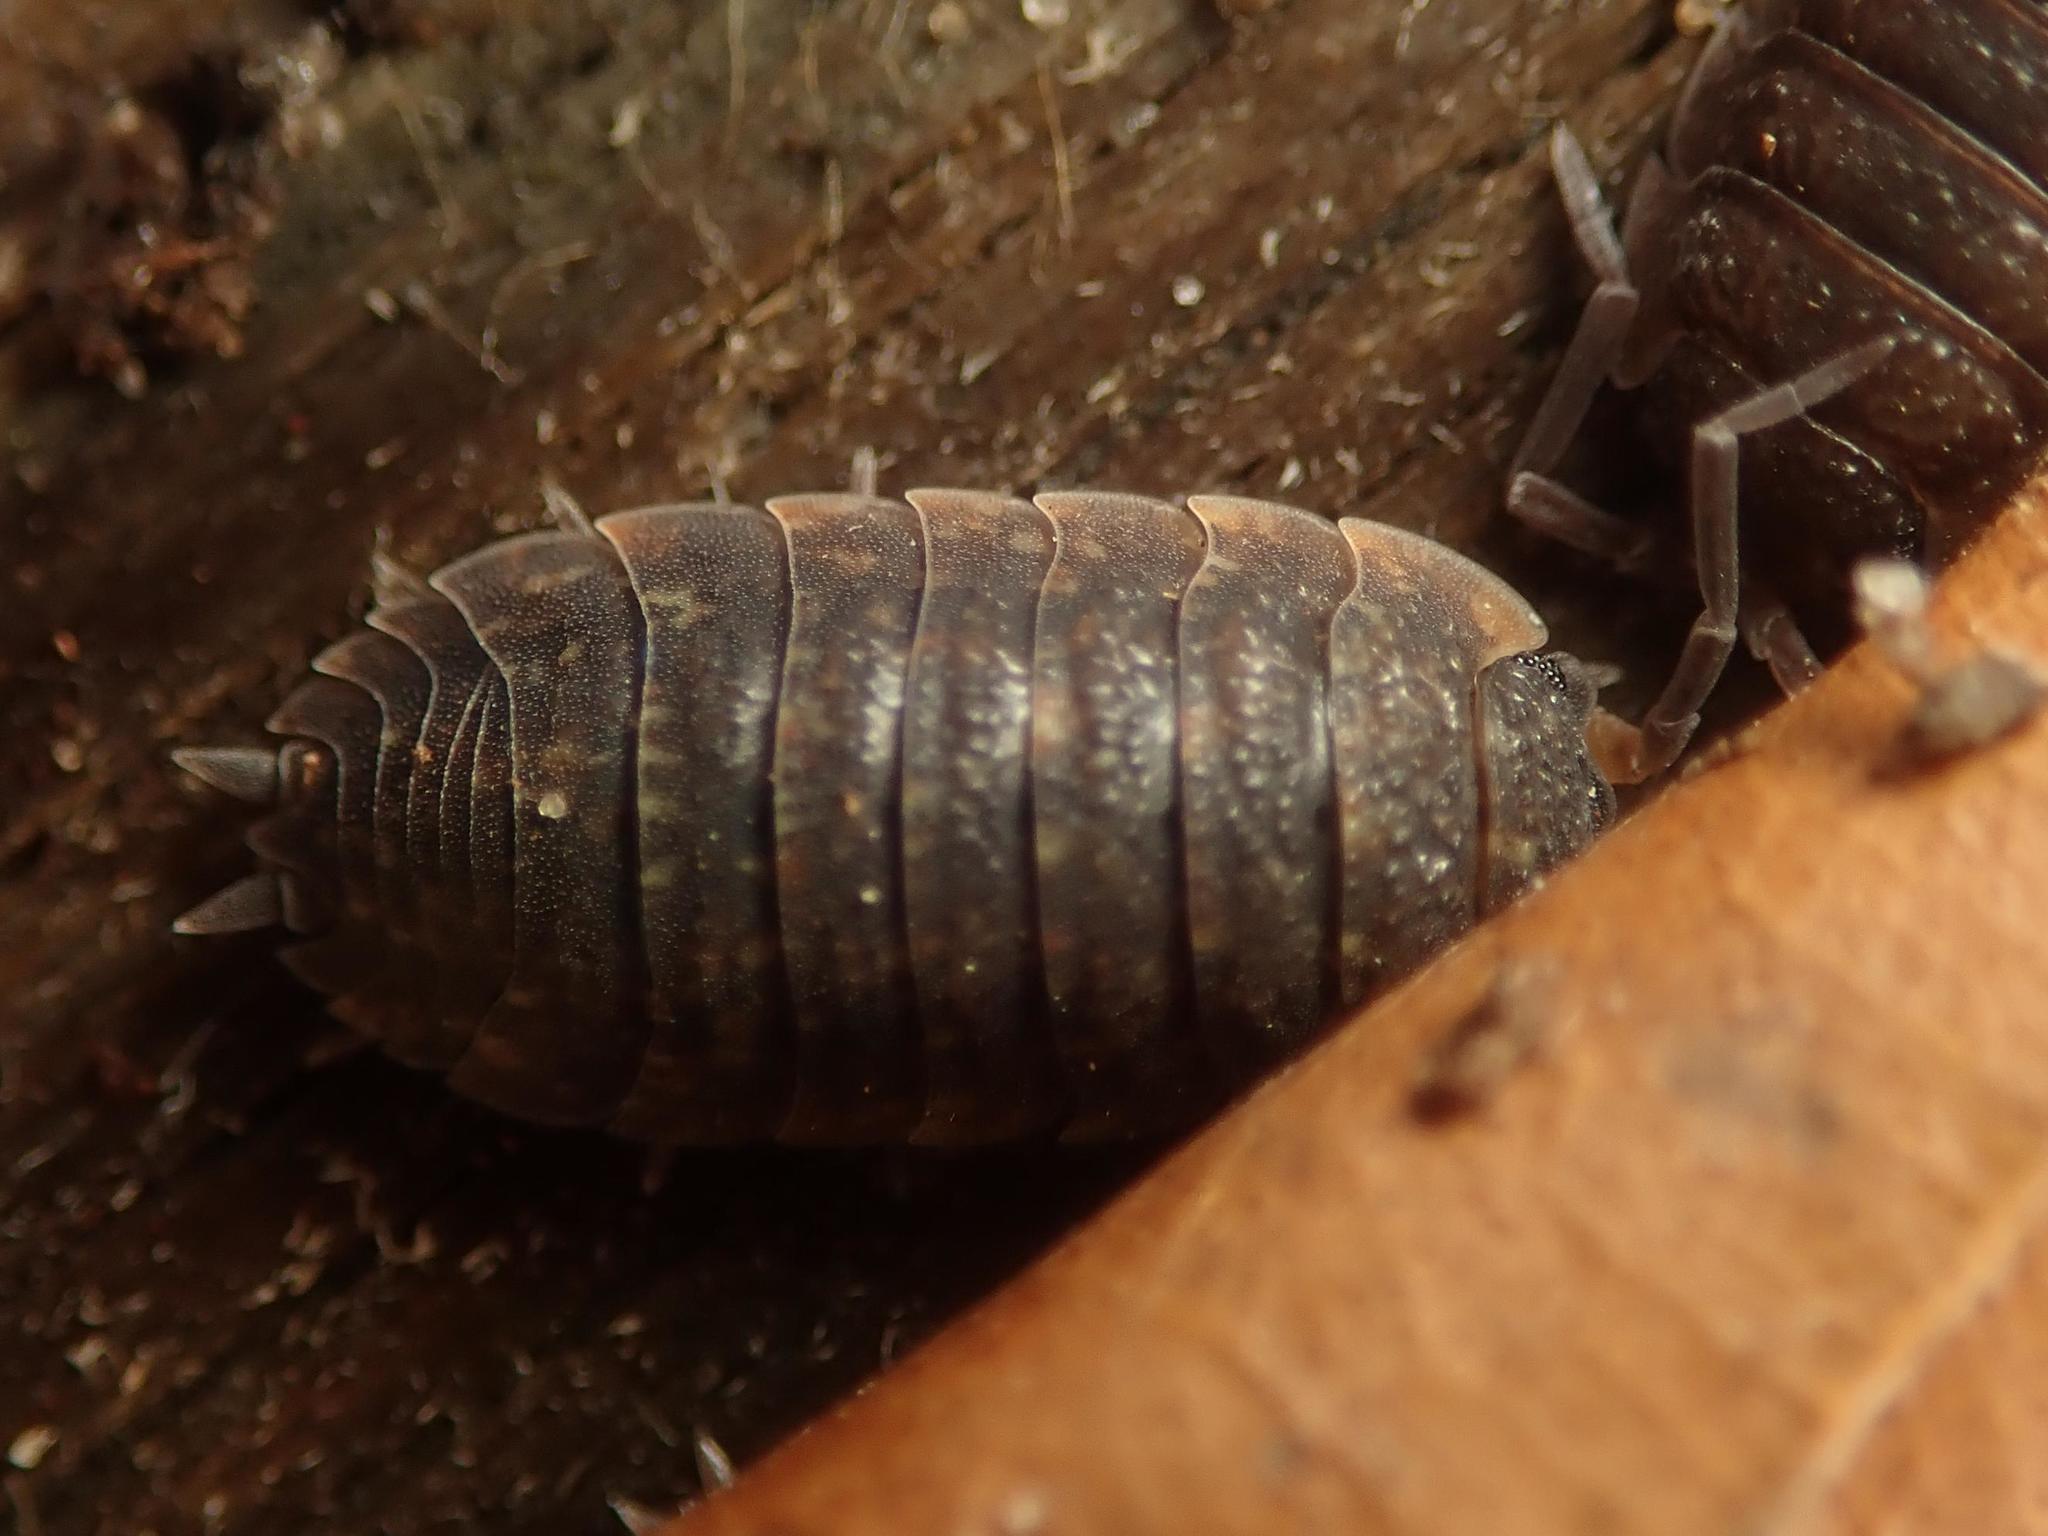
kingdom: Animalia
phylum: Arthropoda
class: Malacostraca
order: Isopoda
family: Porcellionidae
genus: Porcellio
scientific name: Porcellio scaber
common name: Common rough woodlouse
